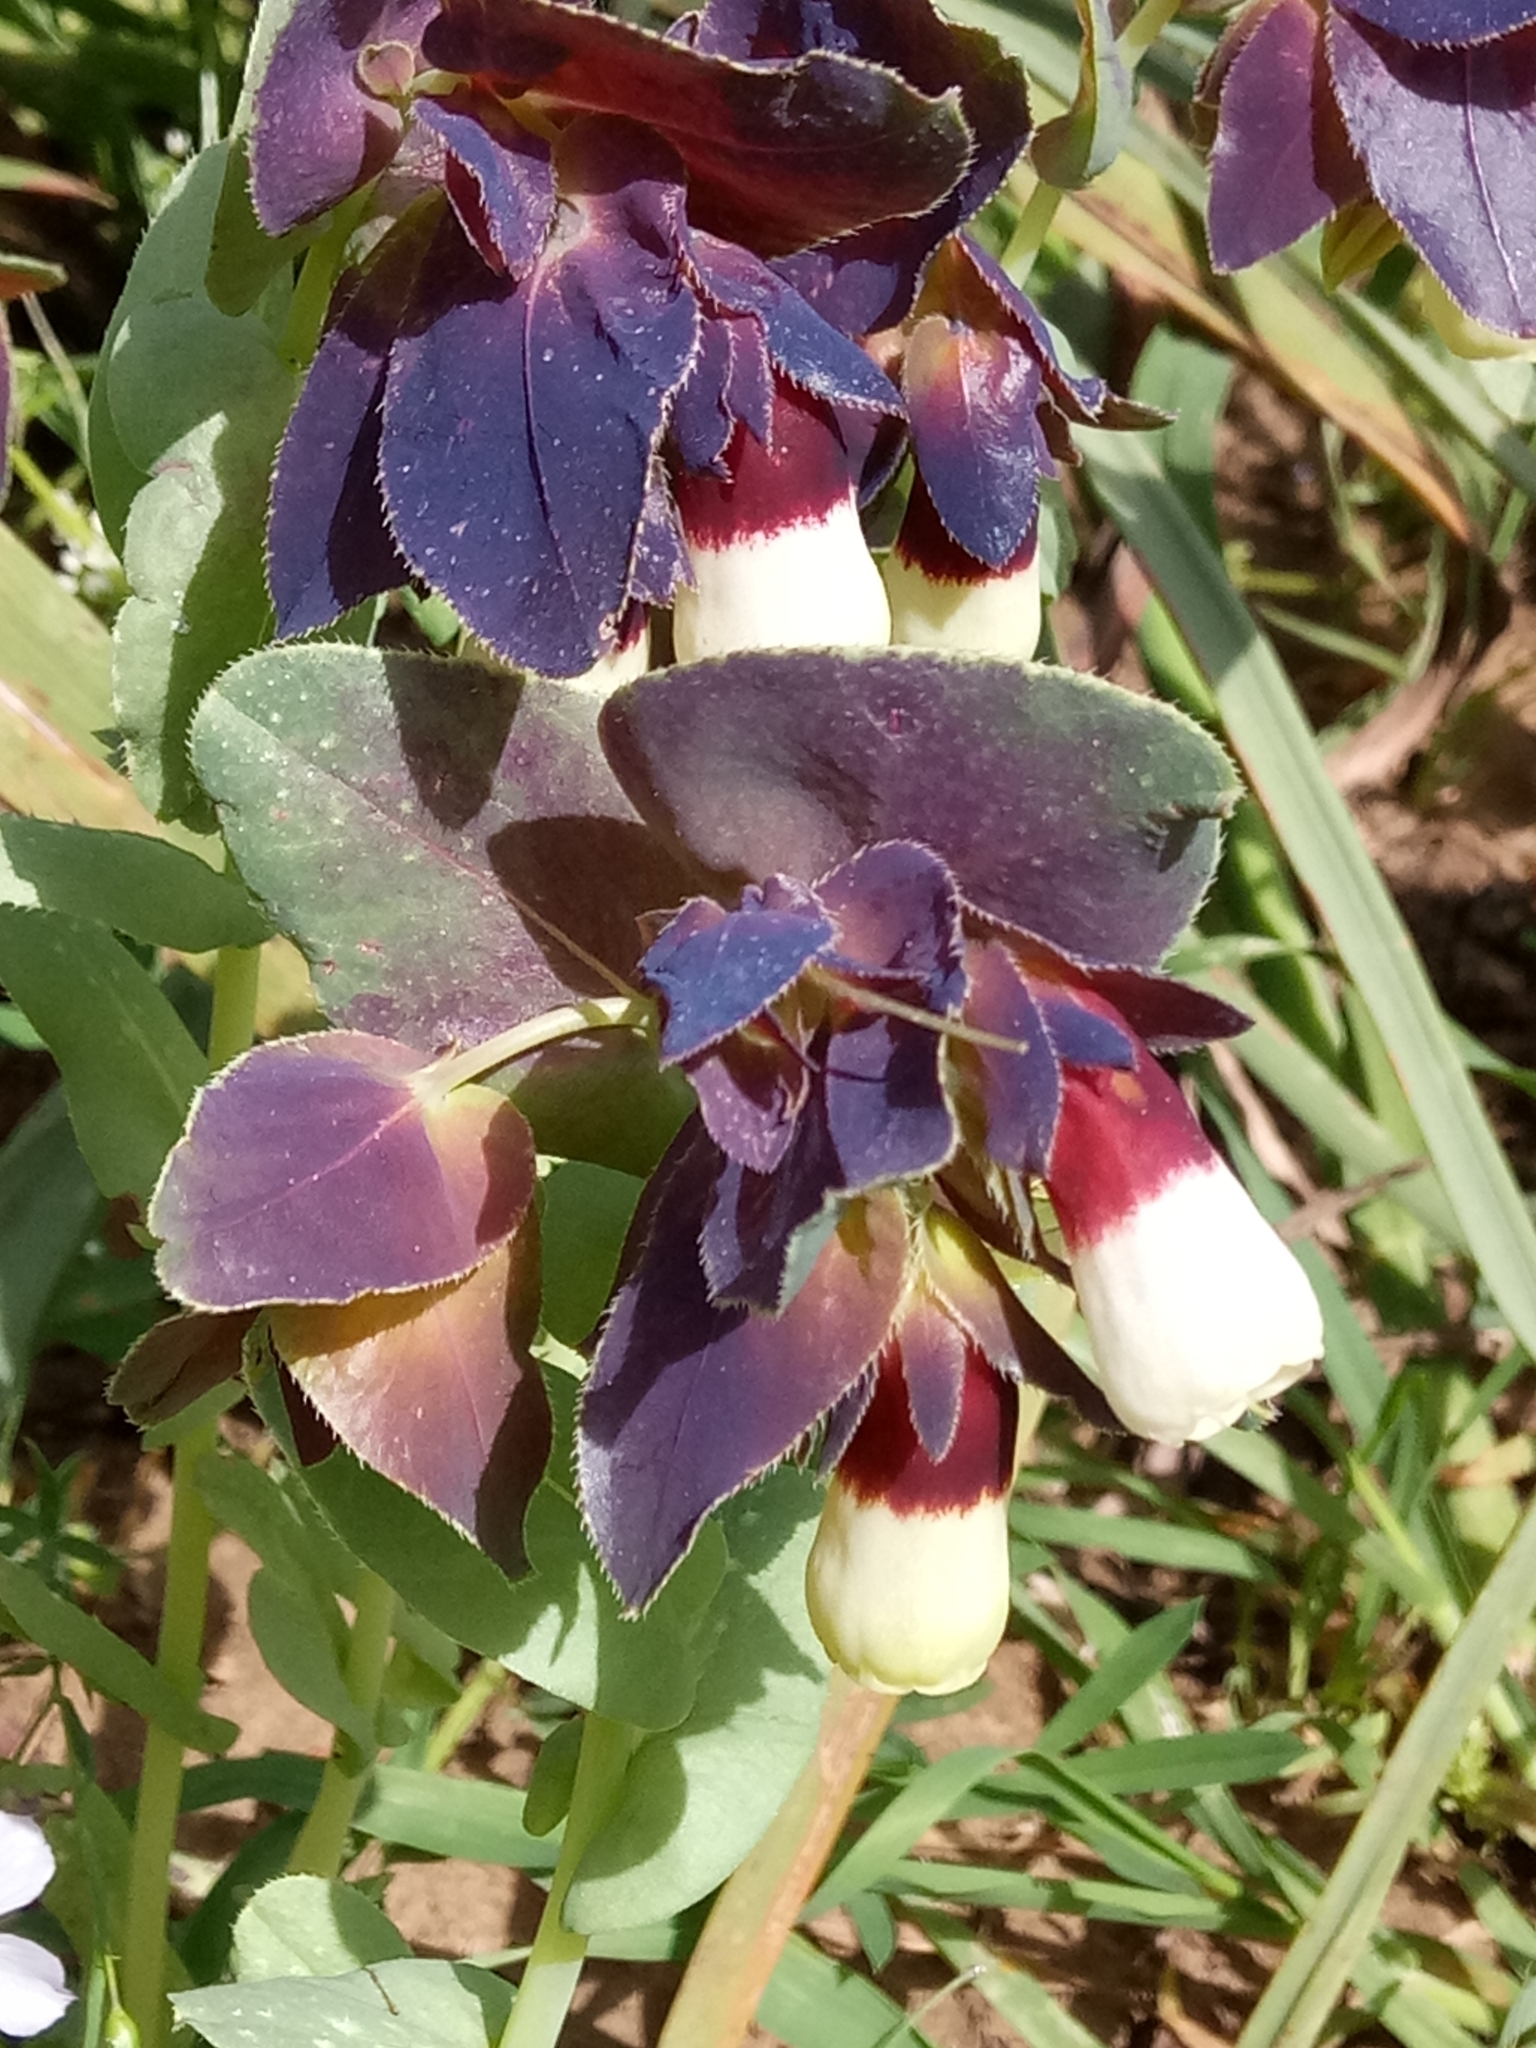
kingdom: Plantae
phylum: Tracheophyta
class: Magnoliopsida
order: Boraginales
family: Boraginaceae
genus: Cerinthe
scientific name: Cerinthe major
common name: Greater honeywort
